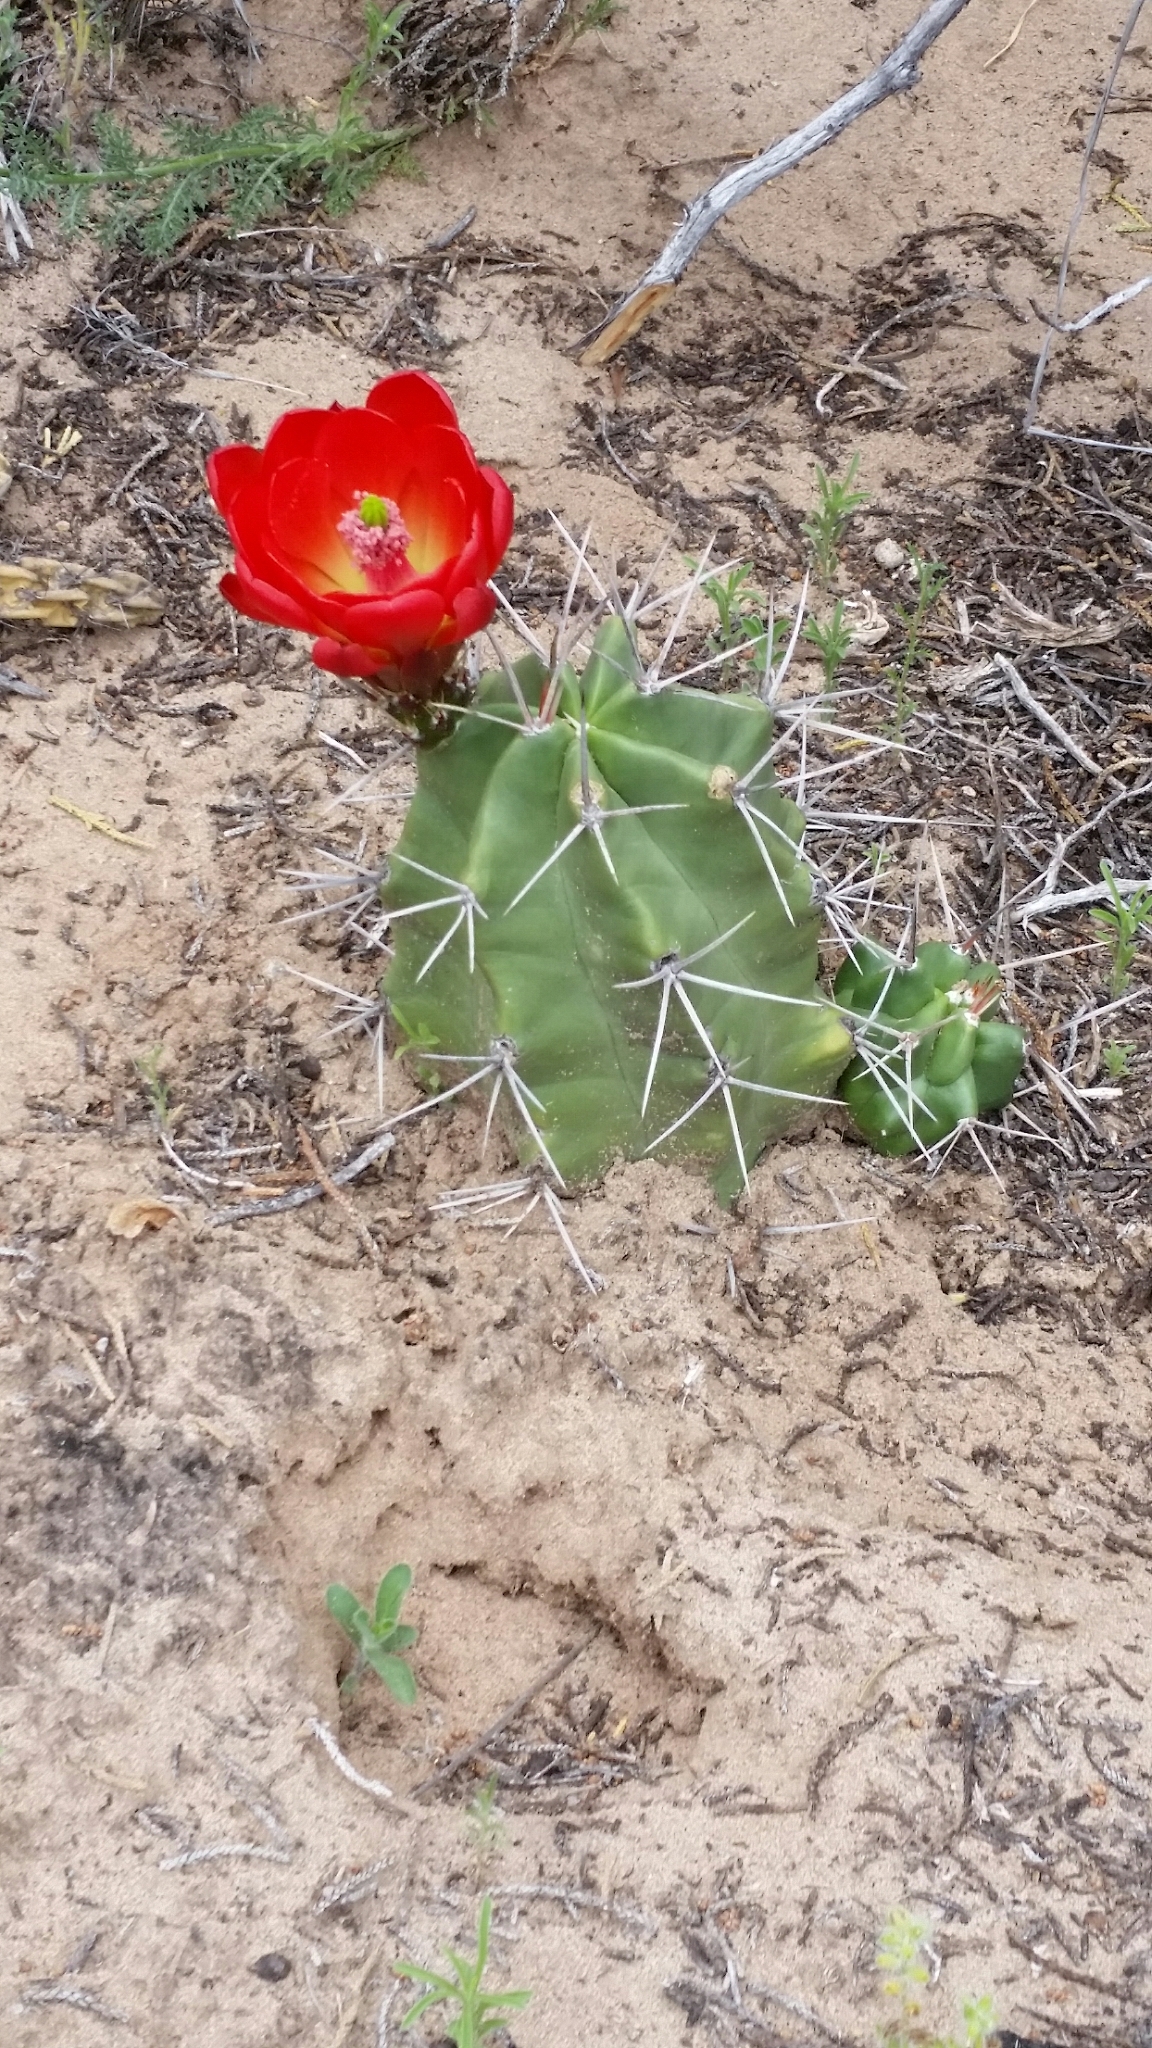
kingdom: Plantae
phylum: Tracheophyta
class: Magnoliopsida
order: Caryophyllales
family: Cactaceae
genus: Echinocereus
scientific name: Echinocereus triglochidiatus
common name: Claretcup hedgehog
